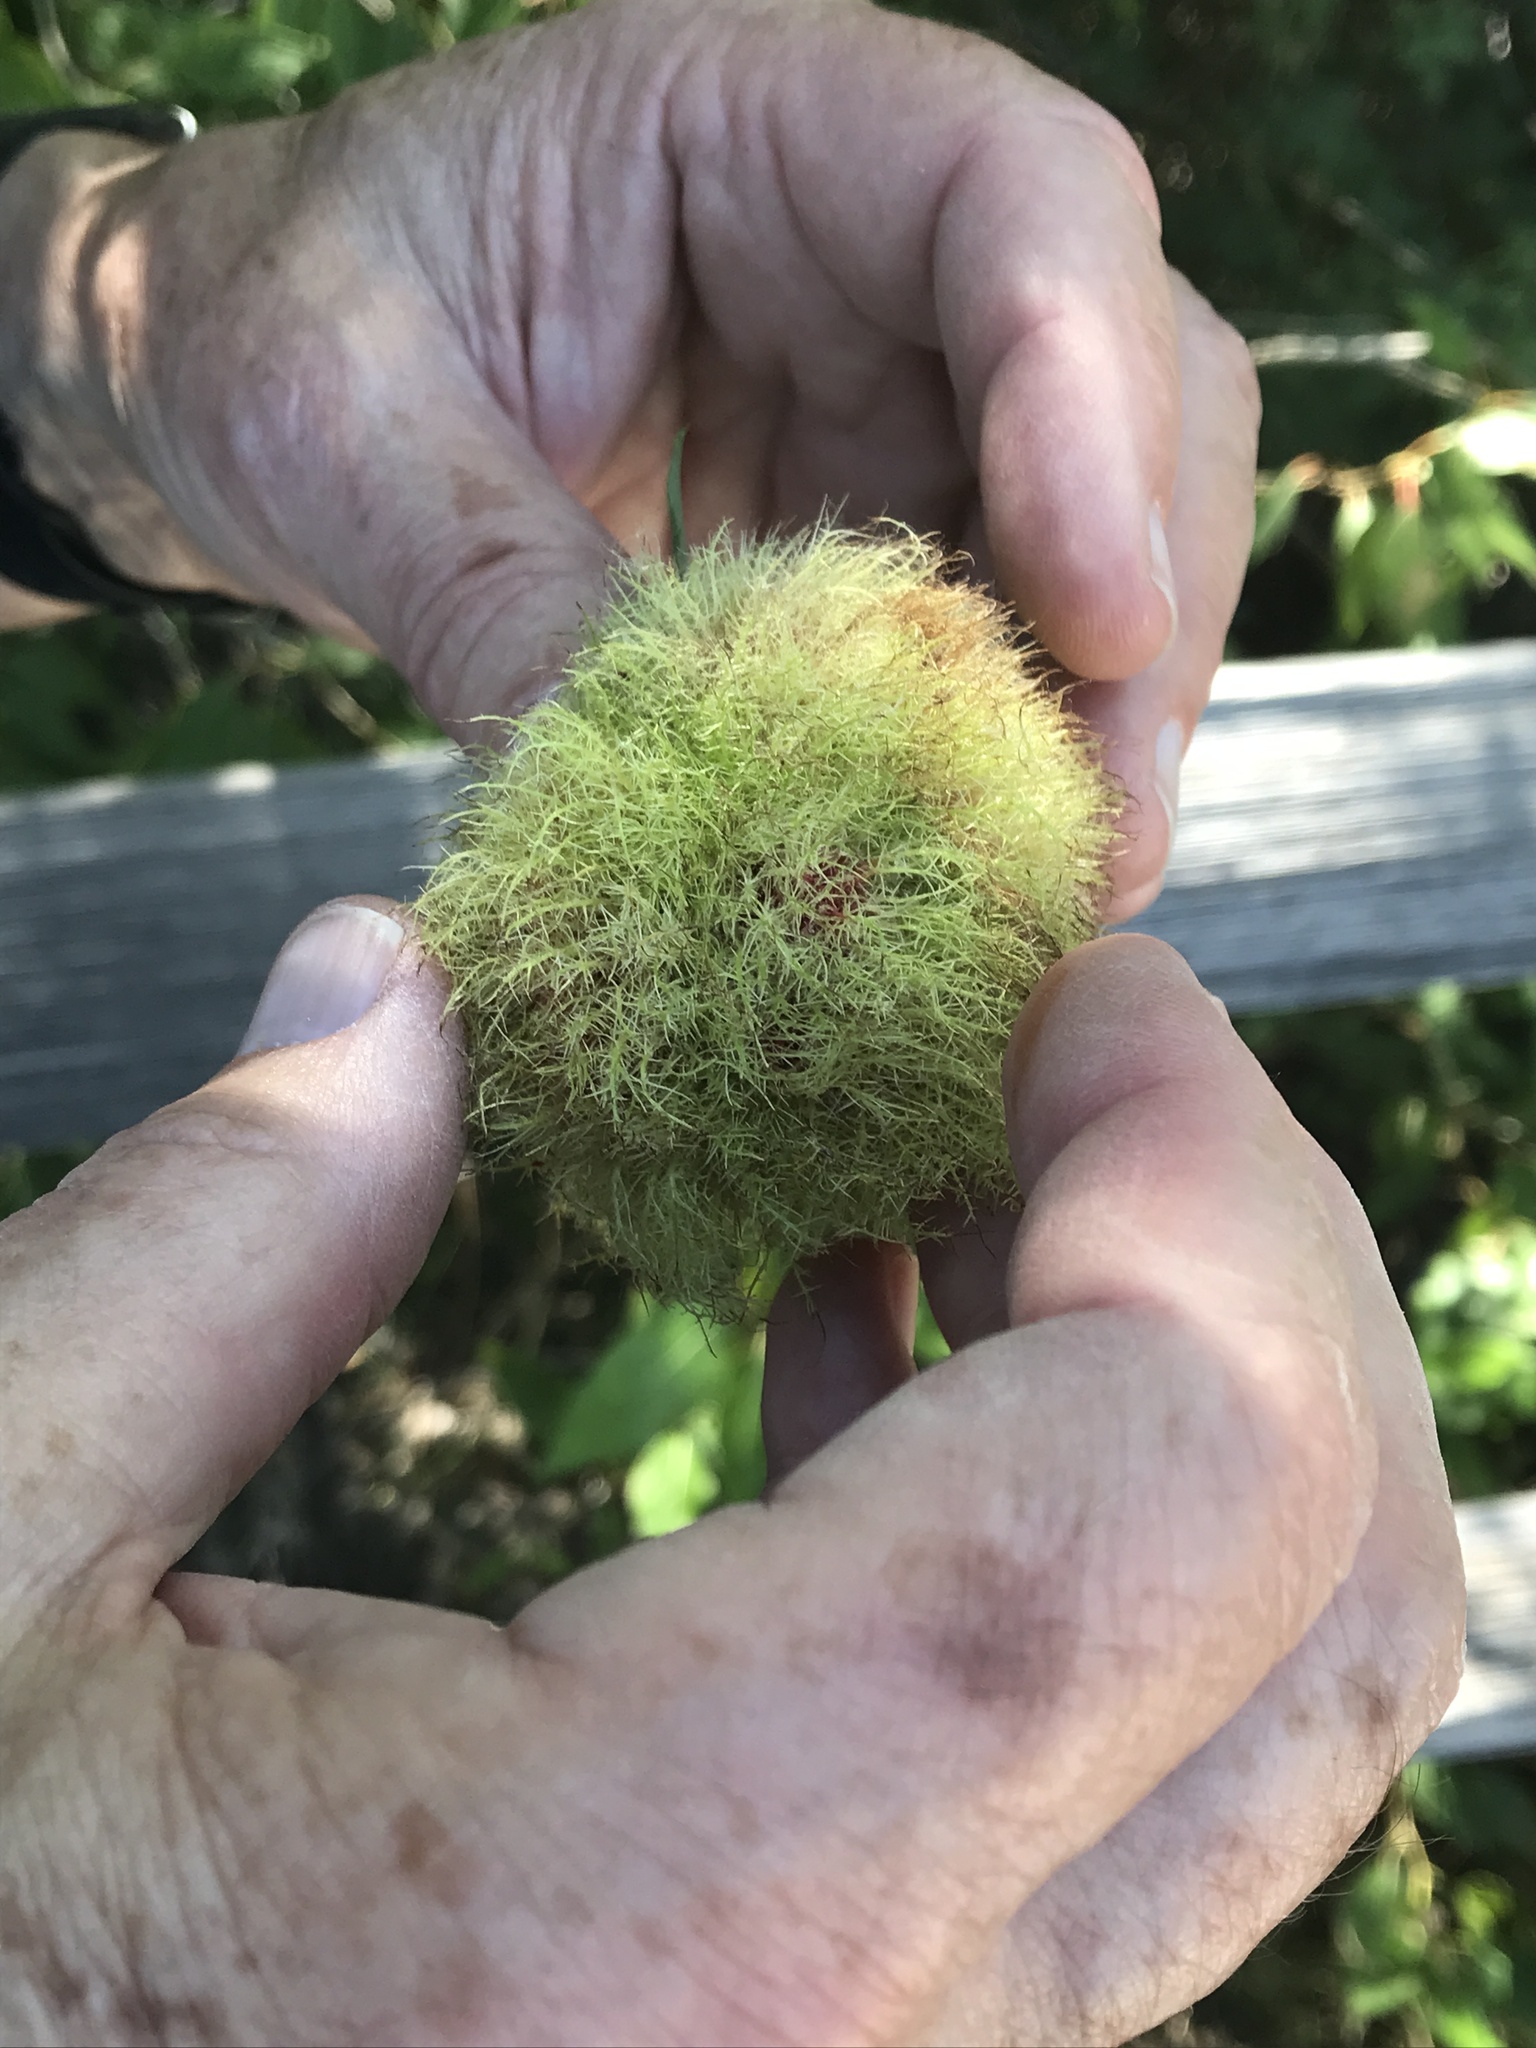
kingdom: Animalia
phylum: Arthropoda
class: Insecta
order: Hymenoptera
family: Cynipidae
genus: Diplolepis
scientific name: Diplolepis rosae
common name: Bedeguar gall
